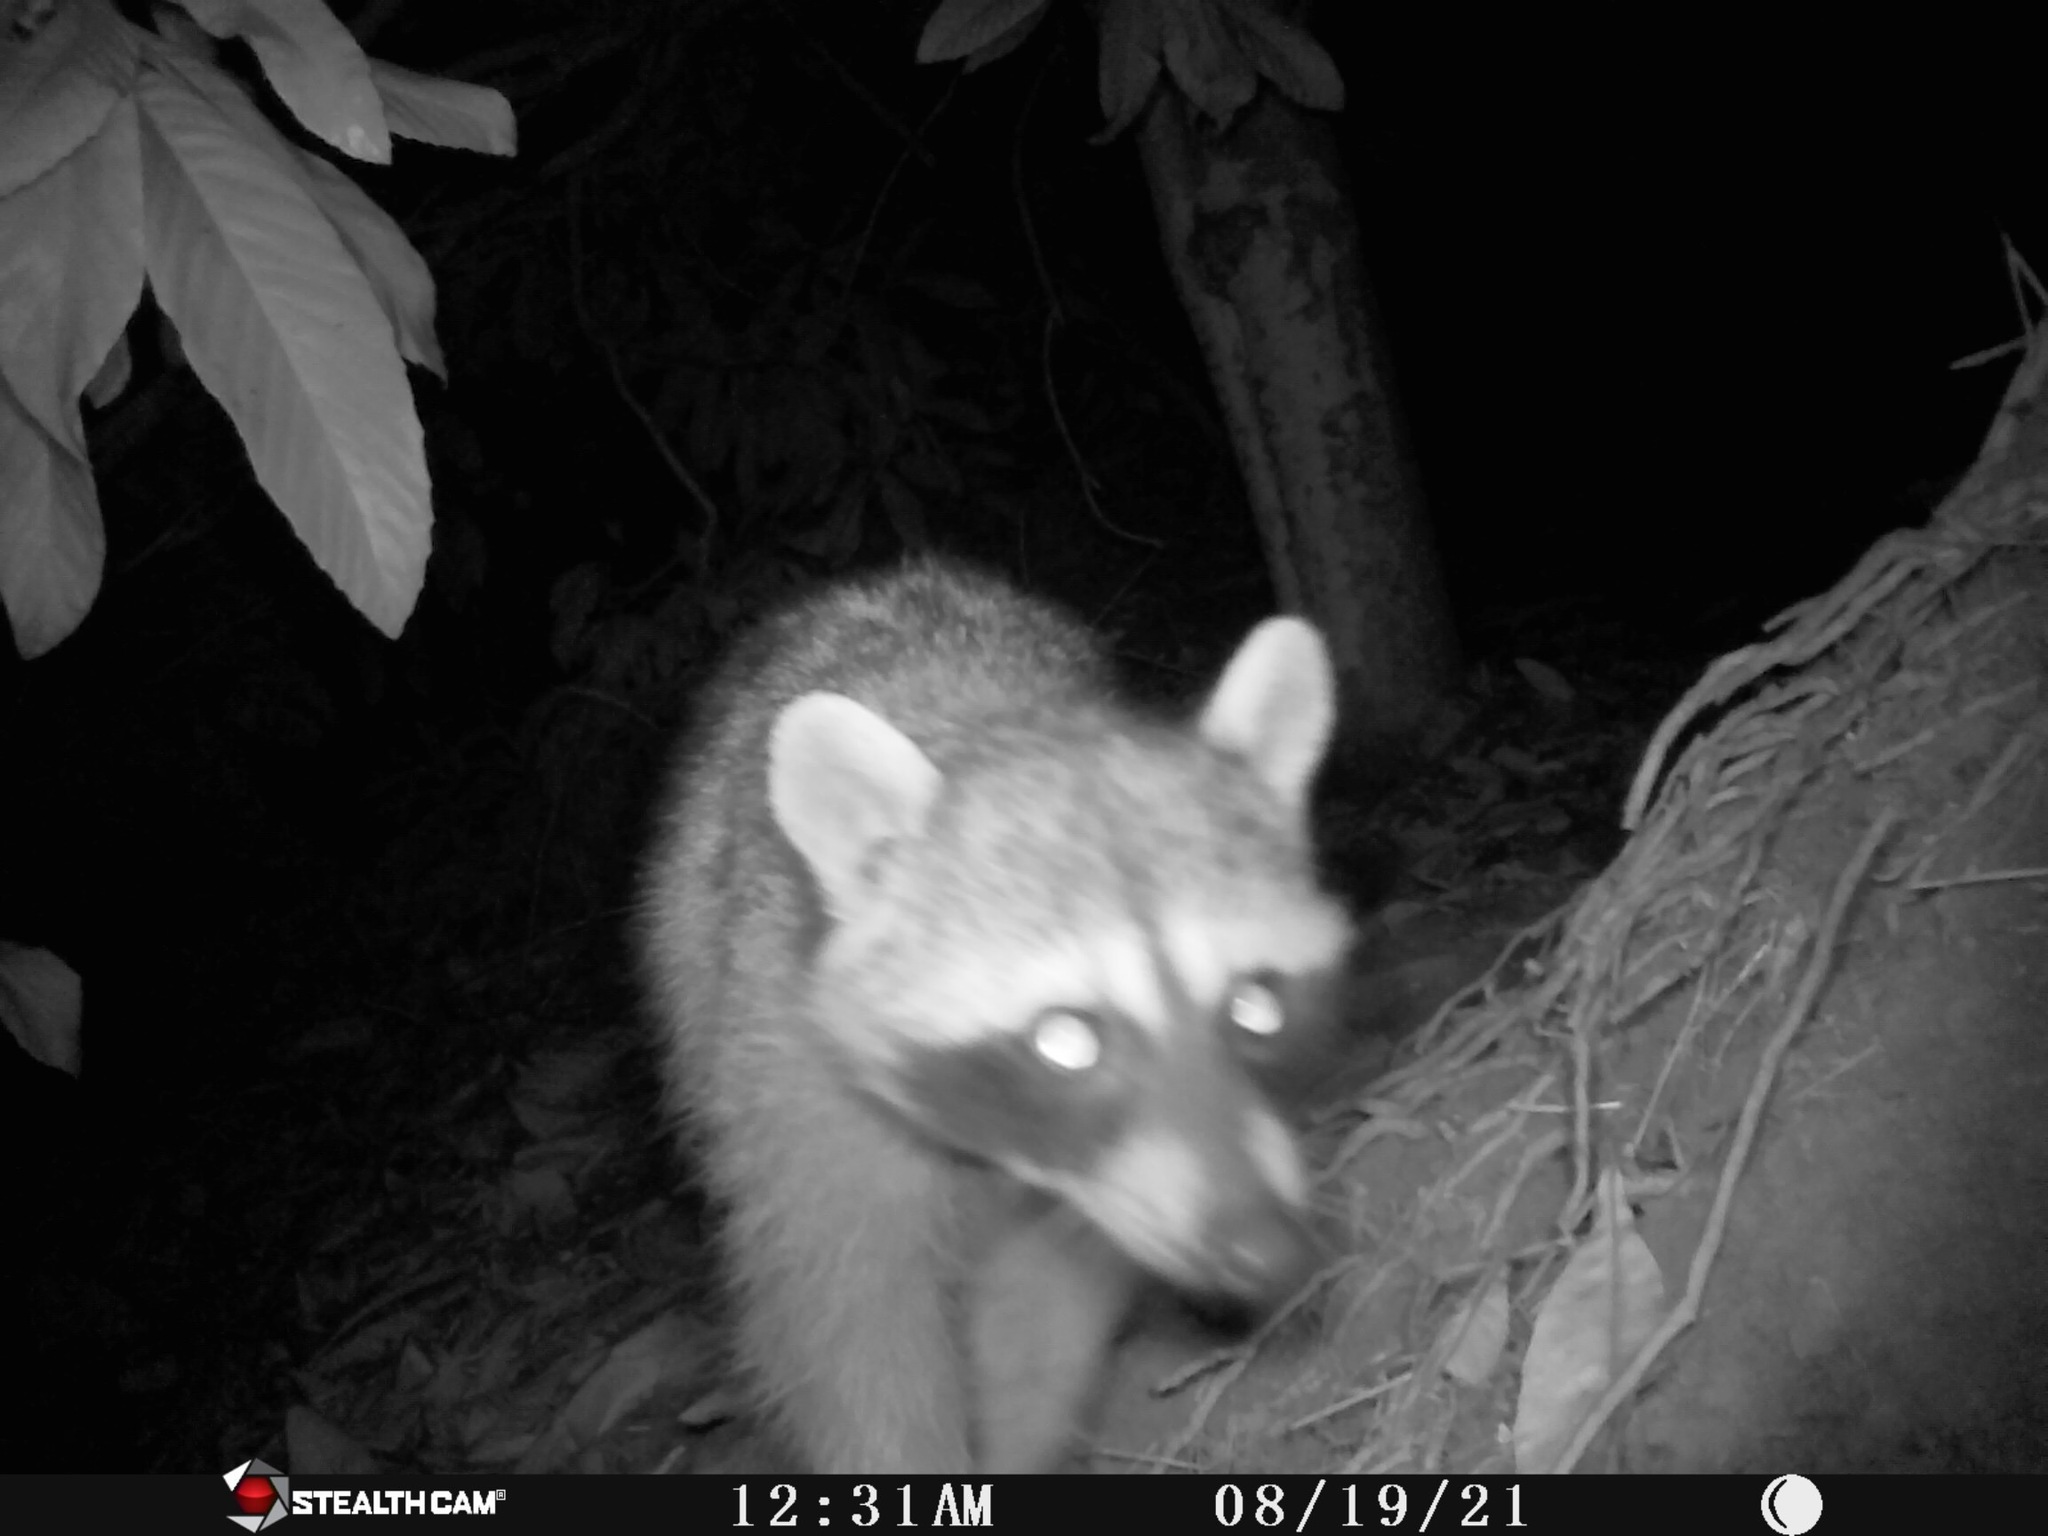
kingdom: Animalia
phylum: Chordata
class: Mammalia
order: Carnivora
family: Procyonidae
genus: Procyon
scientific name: Procyon lotor
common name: Raccoon
